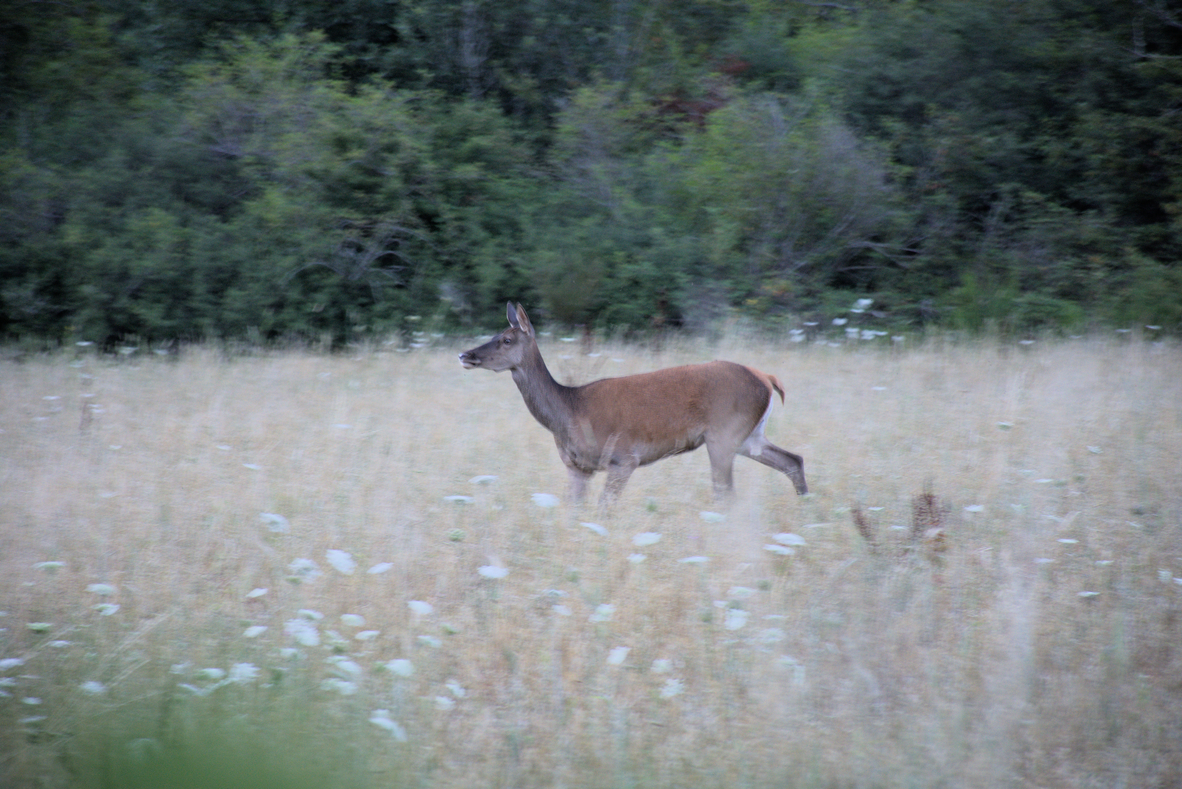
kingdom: Animalia
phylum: Chordata
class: Mammalia
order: Artiodactyla
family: Cervidae
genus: Cervus
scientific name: Cervus elaphus
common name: Red deer
